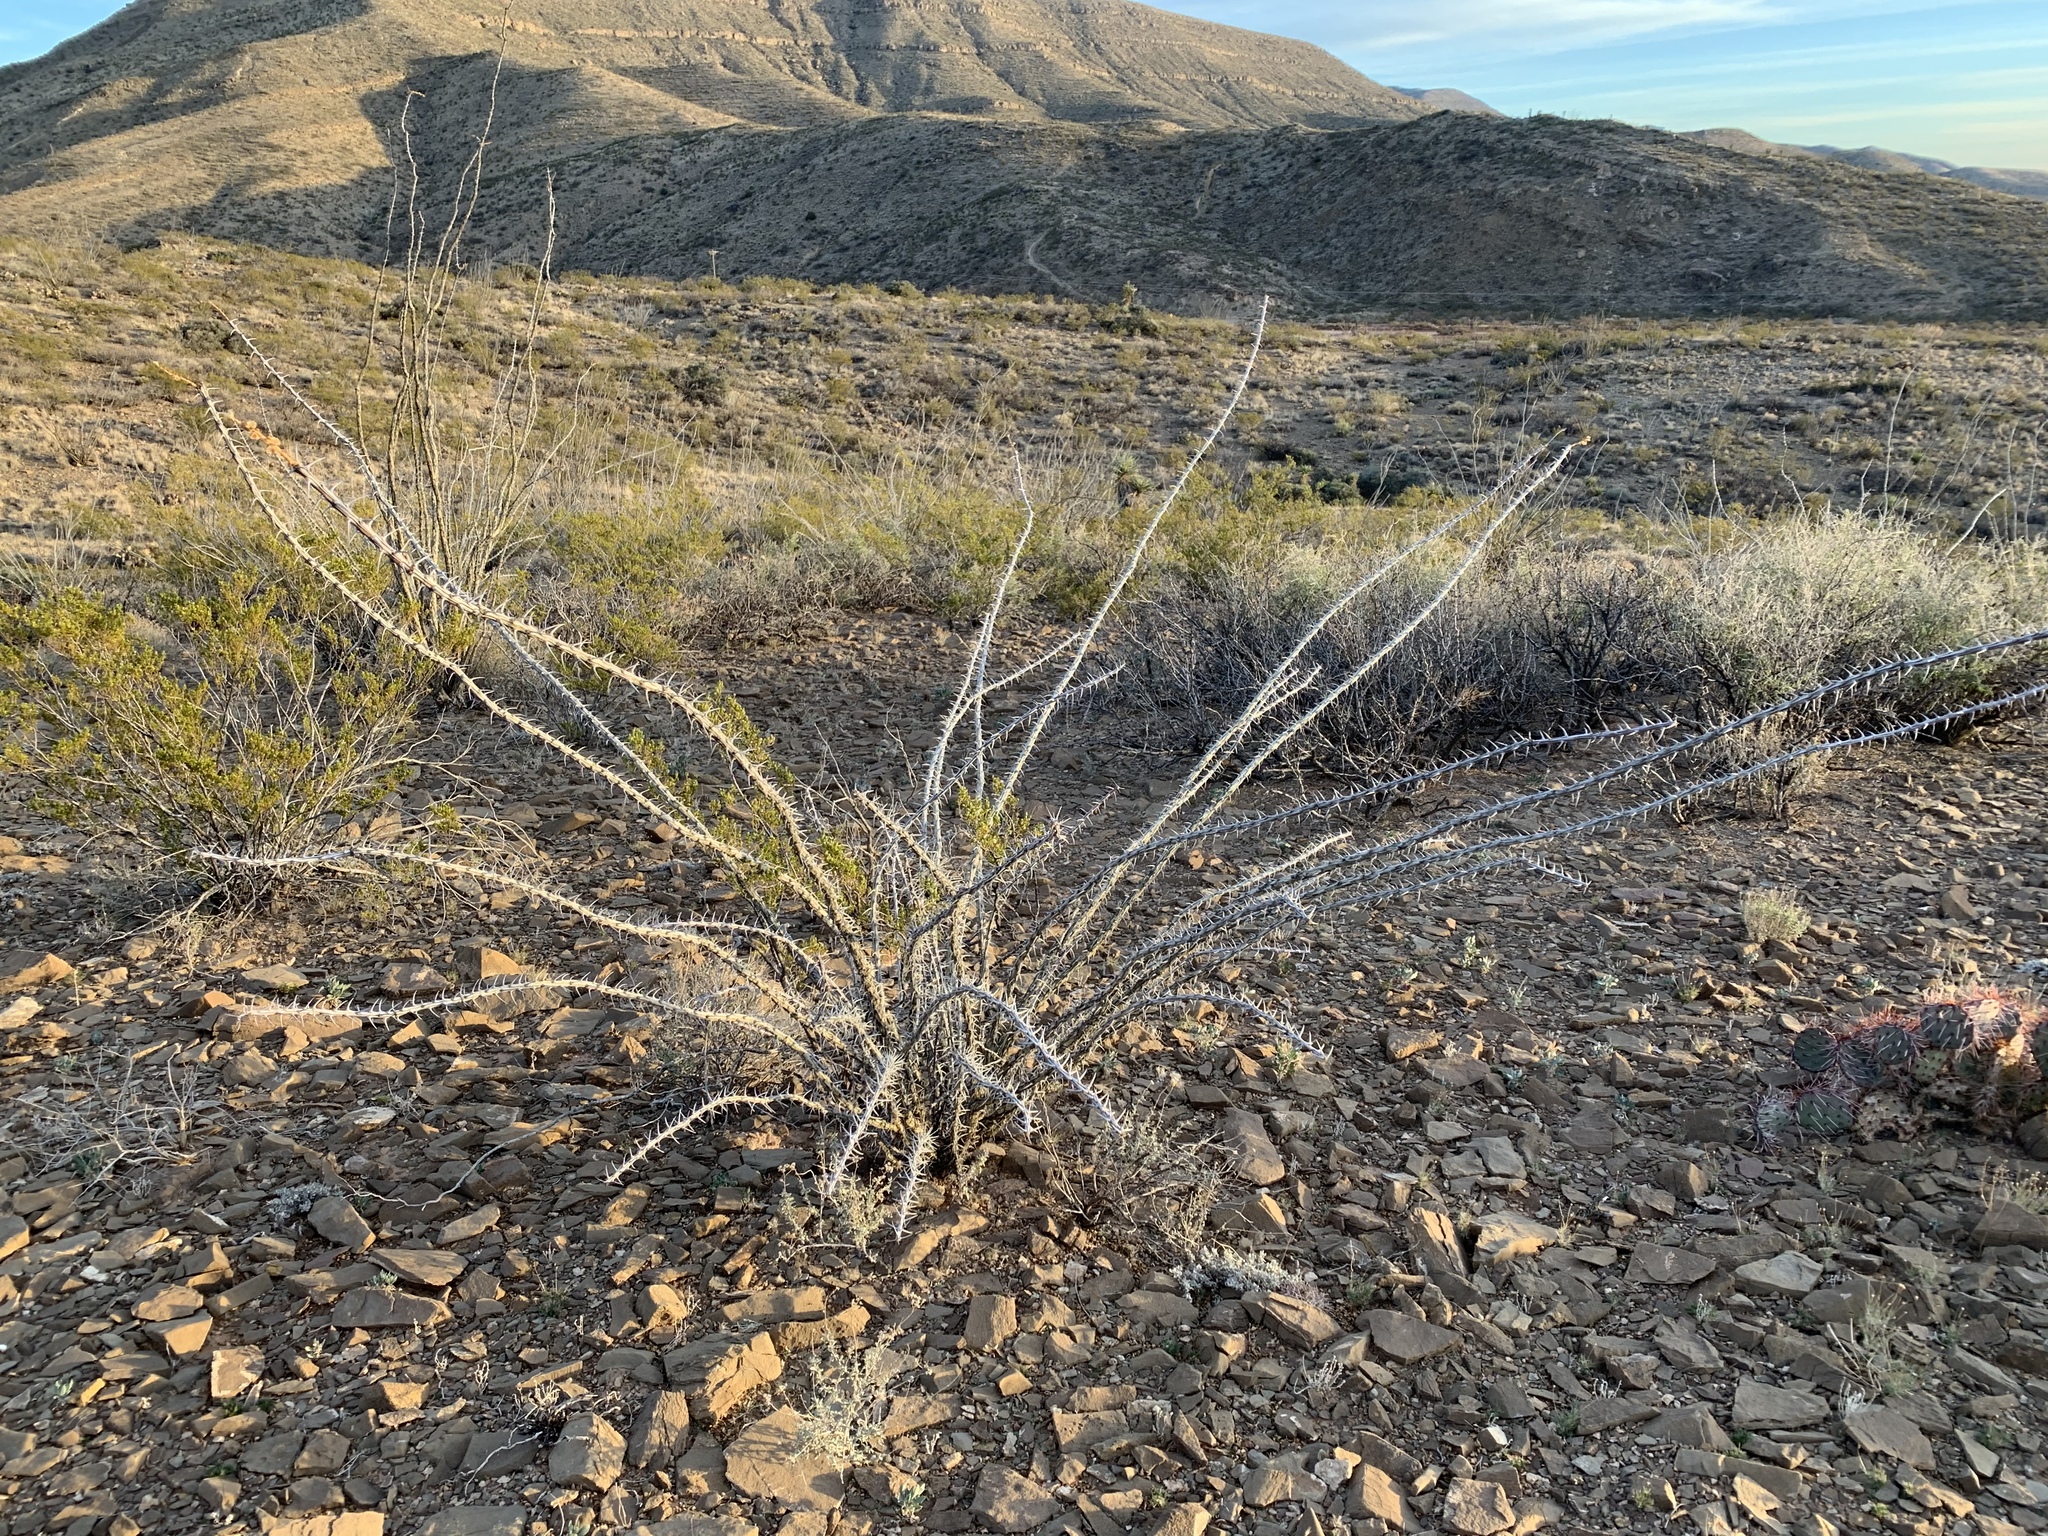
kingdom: Plantae
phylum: Tracheophyta
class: Magnoliopsida
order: Ericales
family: Fouquieriaceae
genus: Fouquieria
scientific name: Fouquieria splendens
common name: Vine-cactus
